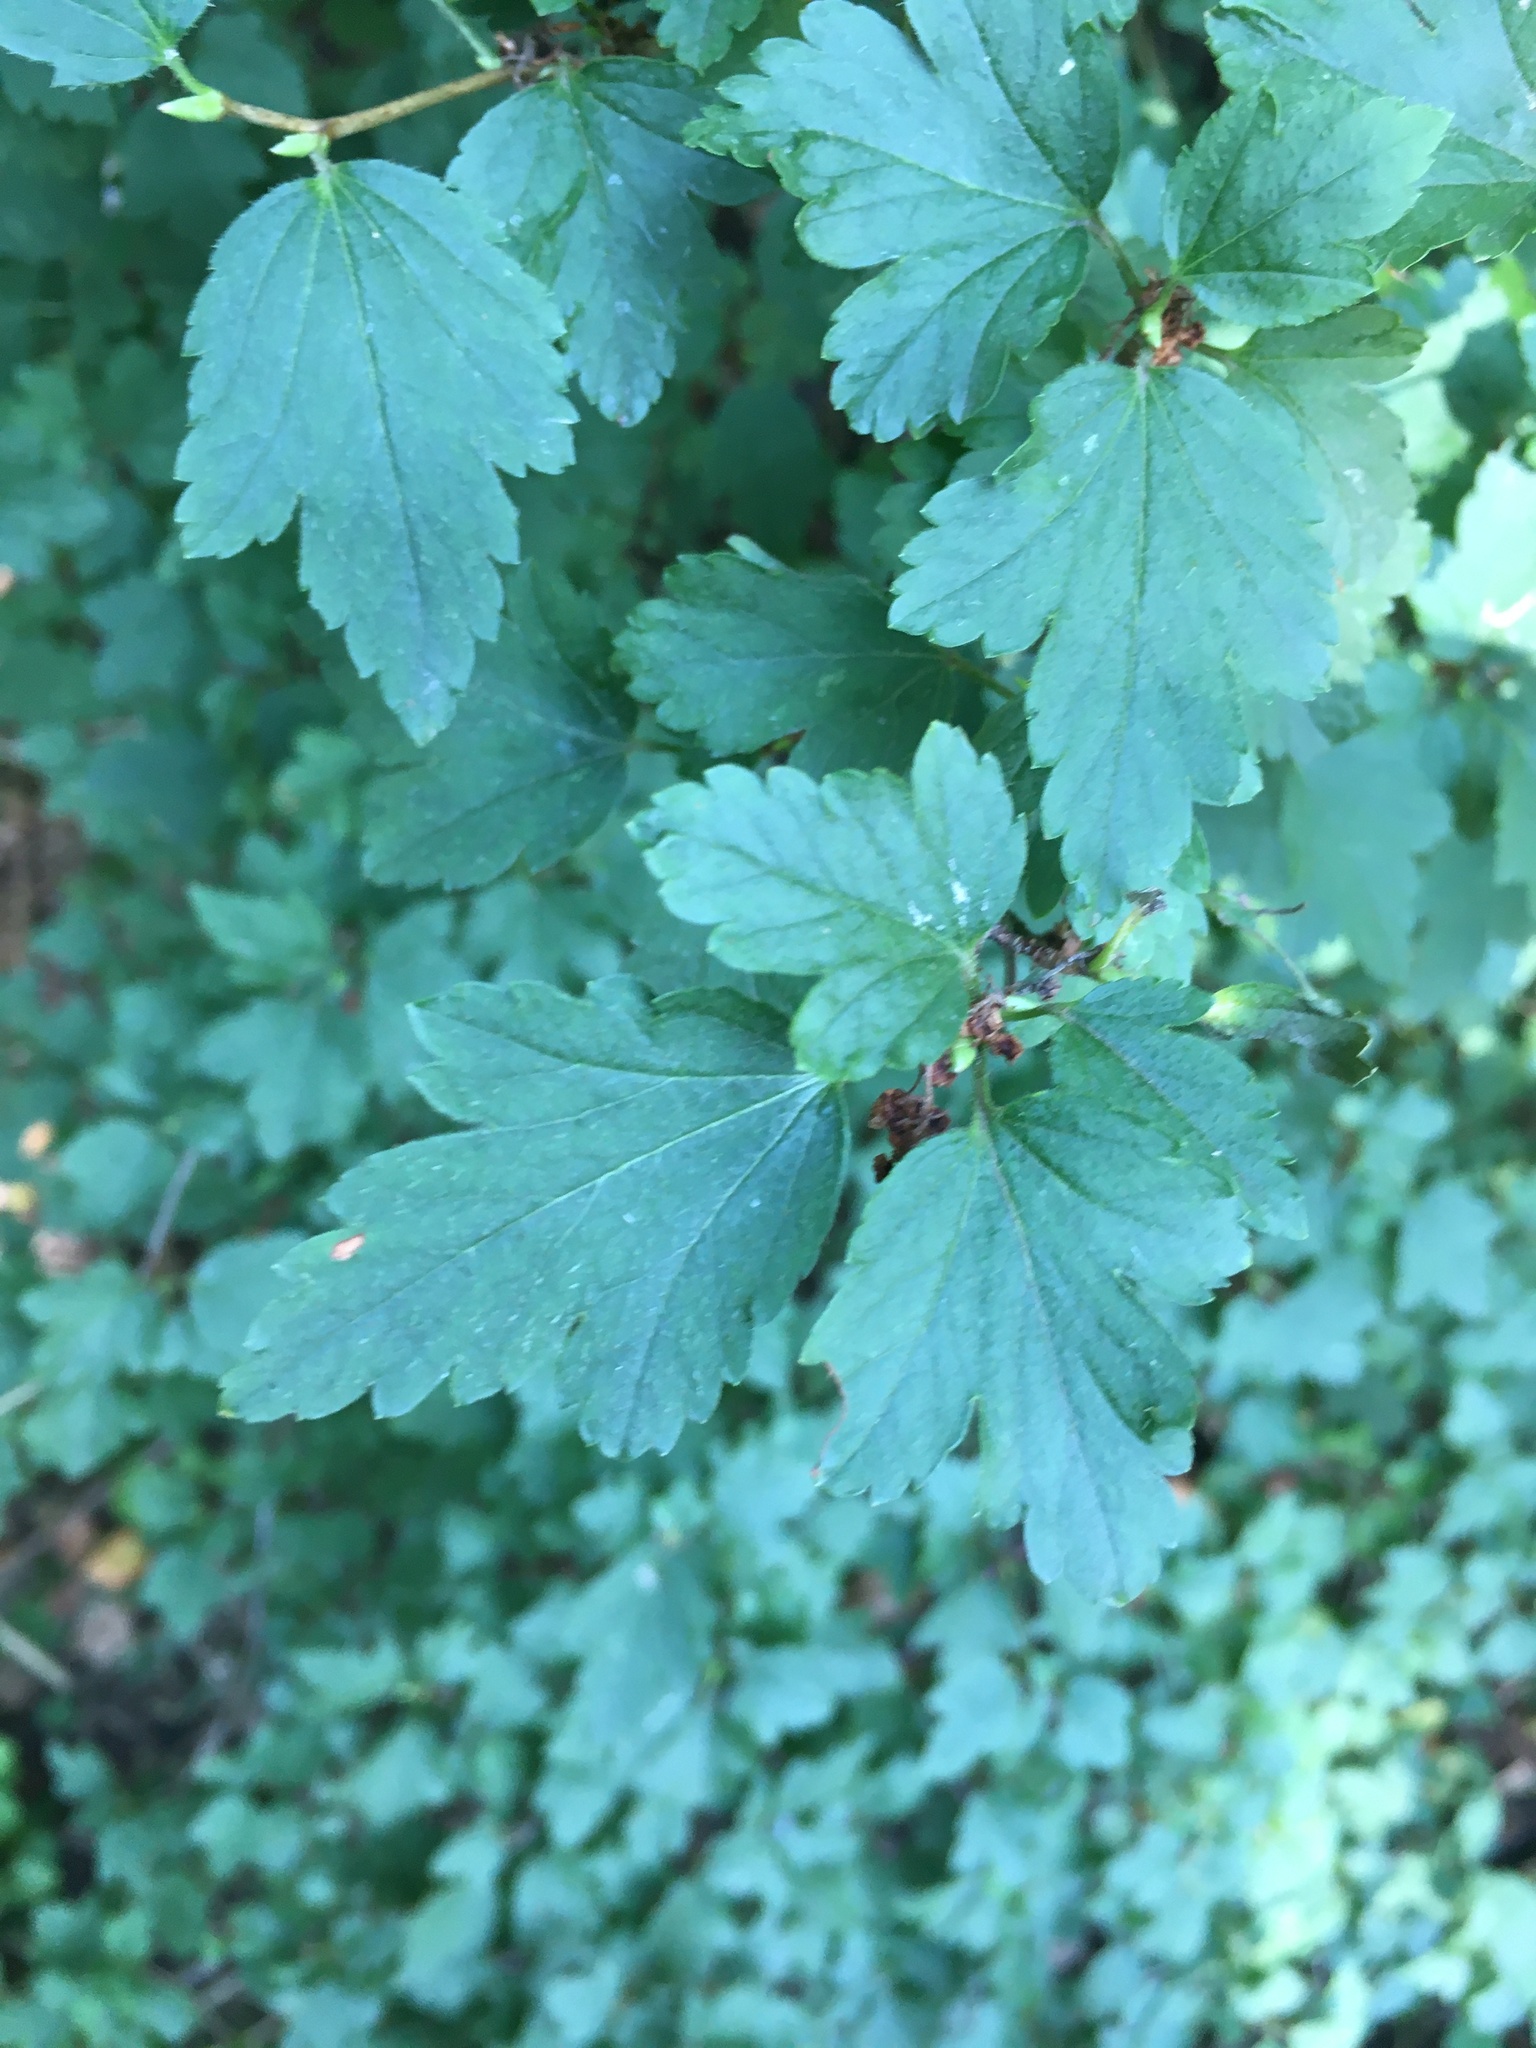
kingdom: Plantae
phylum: Tracheophyta
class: Magnoliopsida
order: Saxifragales
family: Grossulariaceae
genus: Ribes
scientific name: Ribes alpinum
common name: Alpine currant
